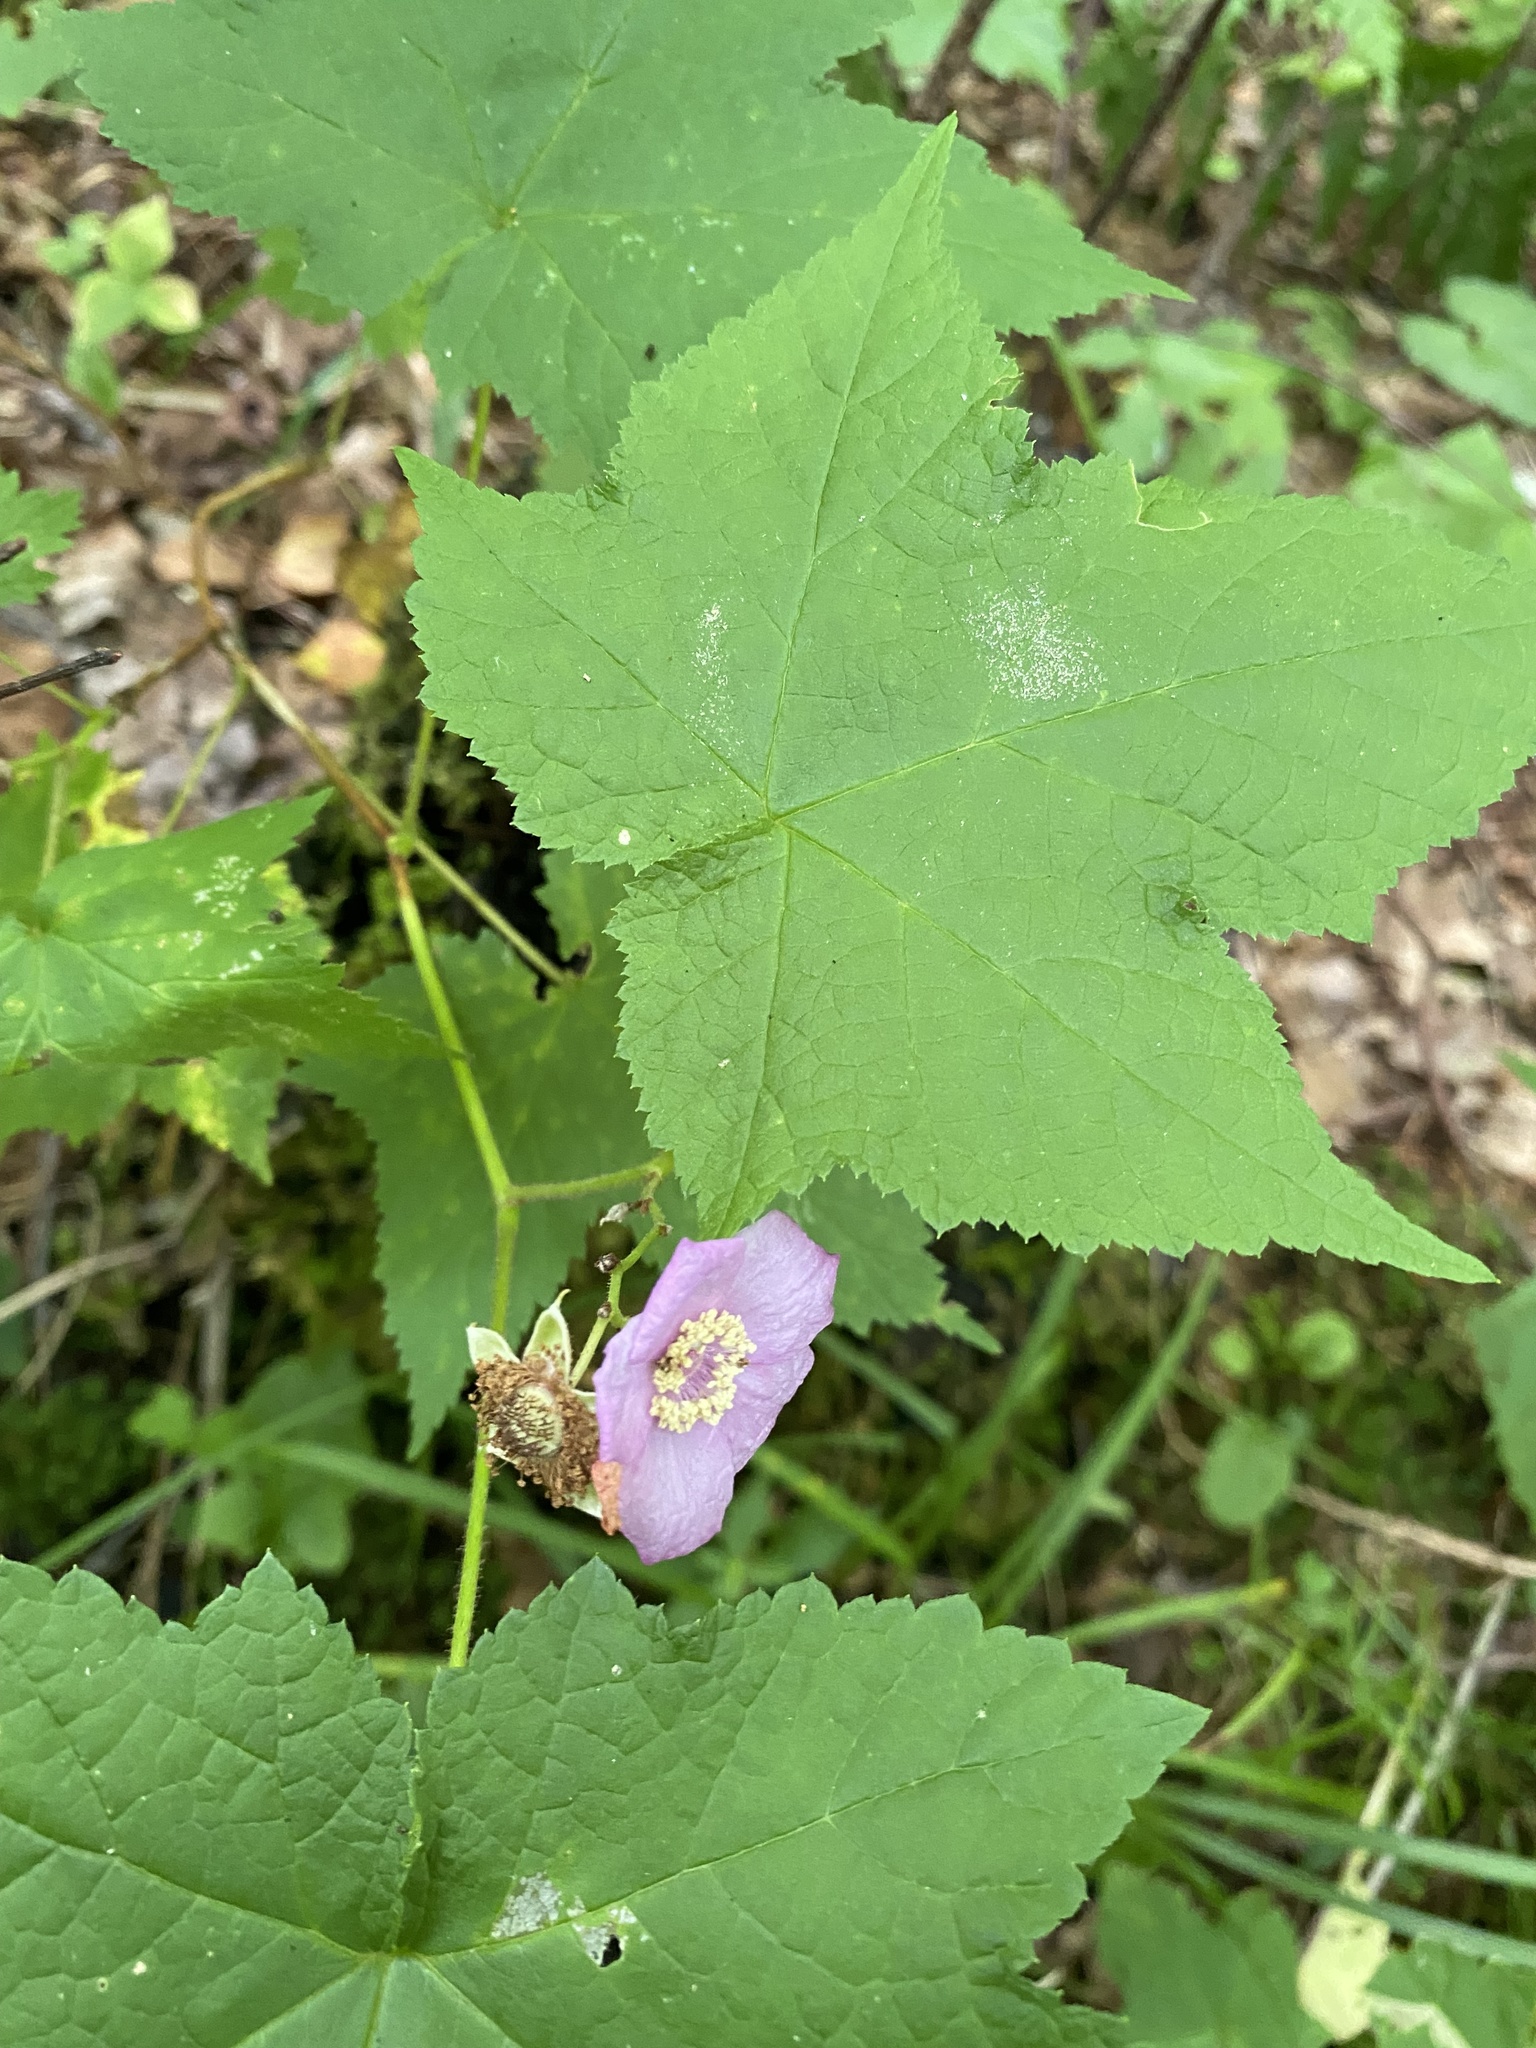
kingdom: Plantae
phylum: Tracheophyta
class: Magnoliopsida
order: Rosales
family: Rosaceae
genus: Rubus
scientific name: Rubus odoratus
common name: Purple-flowered raspberry
